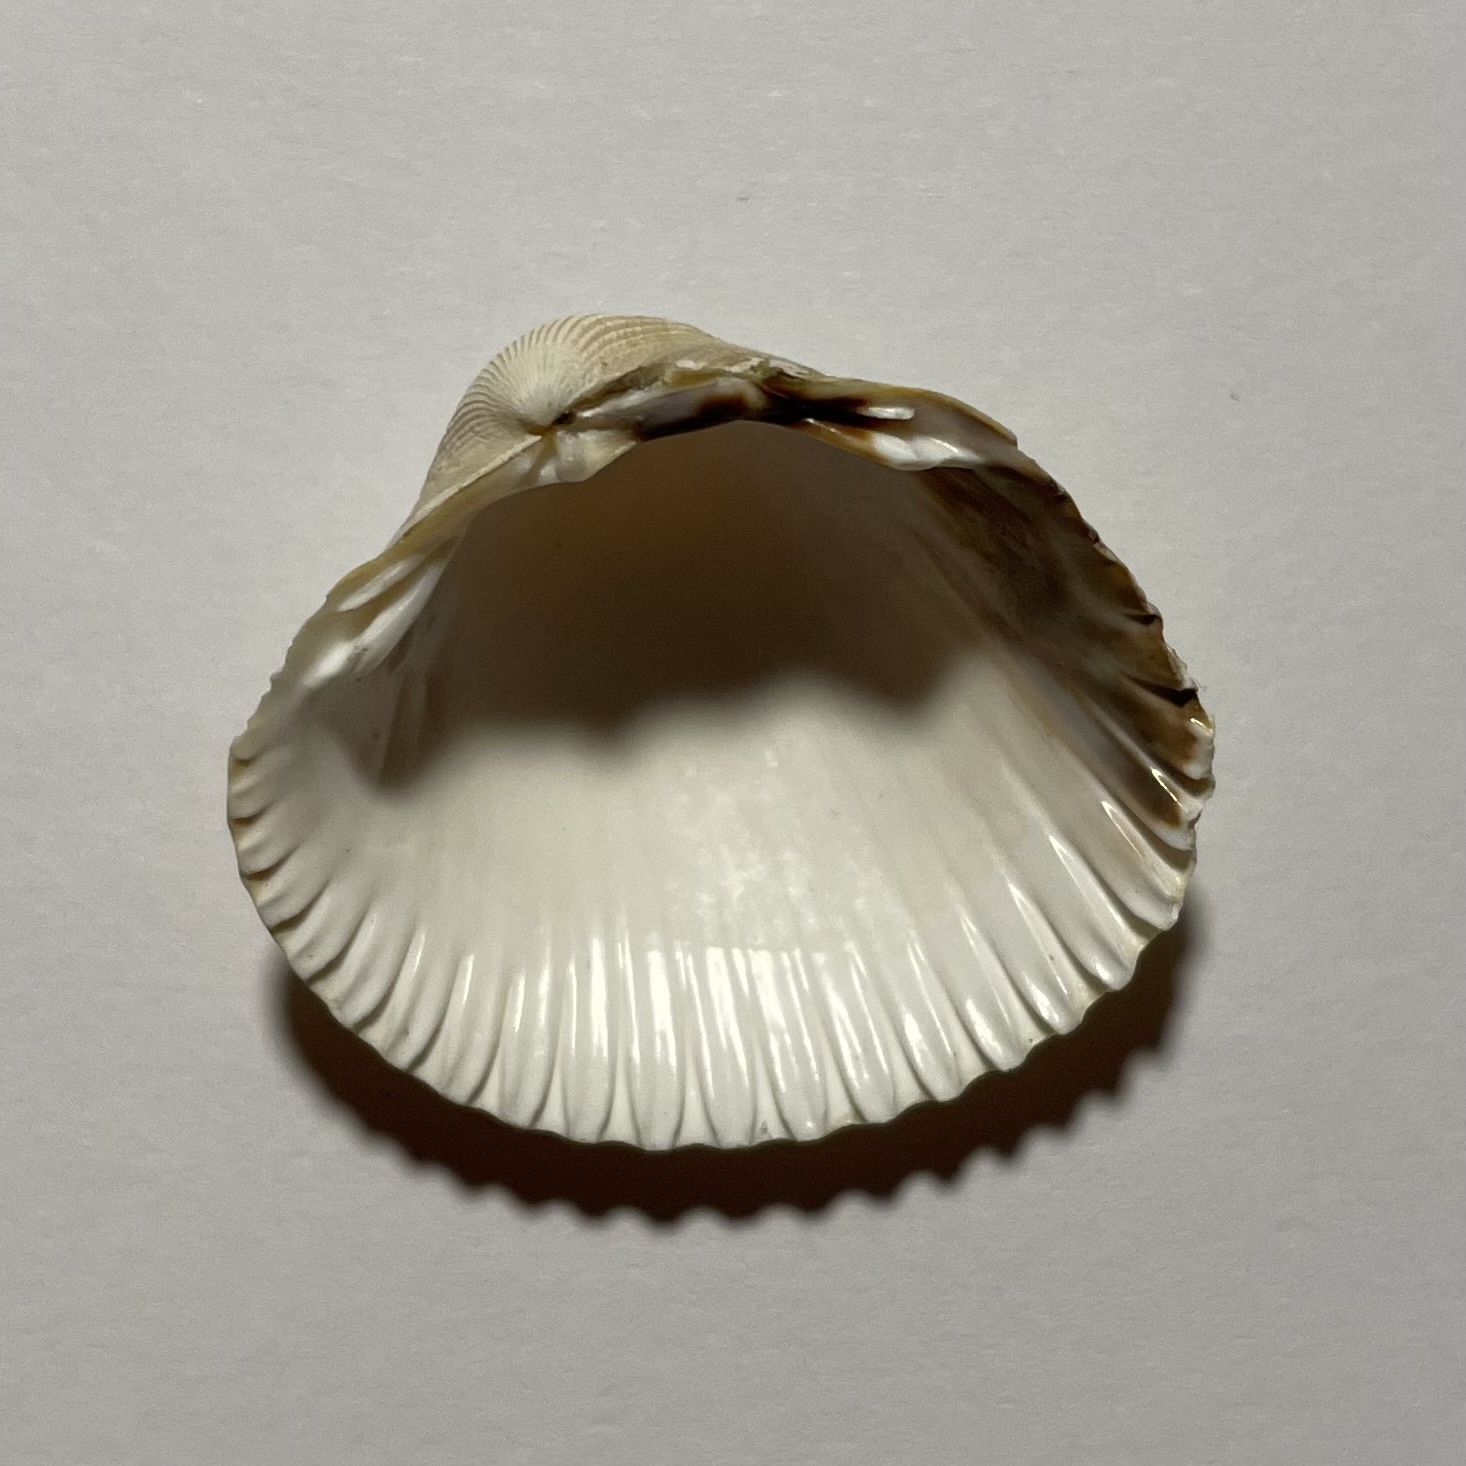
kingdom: Animalia
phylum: Mollusca
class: Bivalvia
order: Cardiida
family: Cardiidae
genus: Cerastoderma
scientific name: Cerastoderma edule
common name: Common cockle
